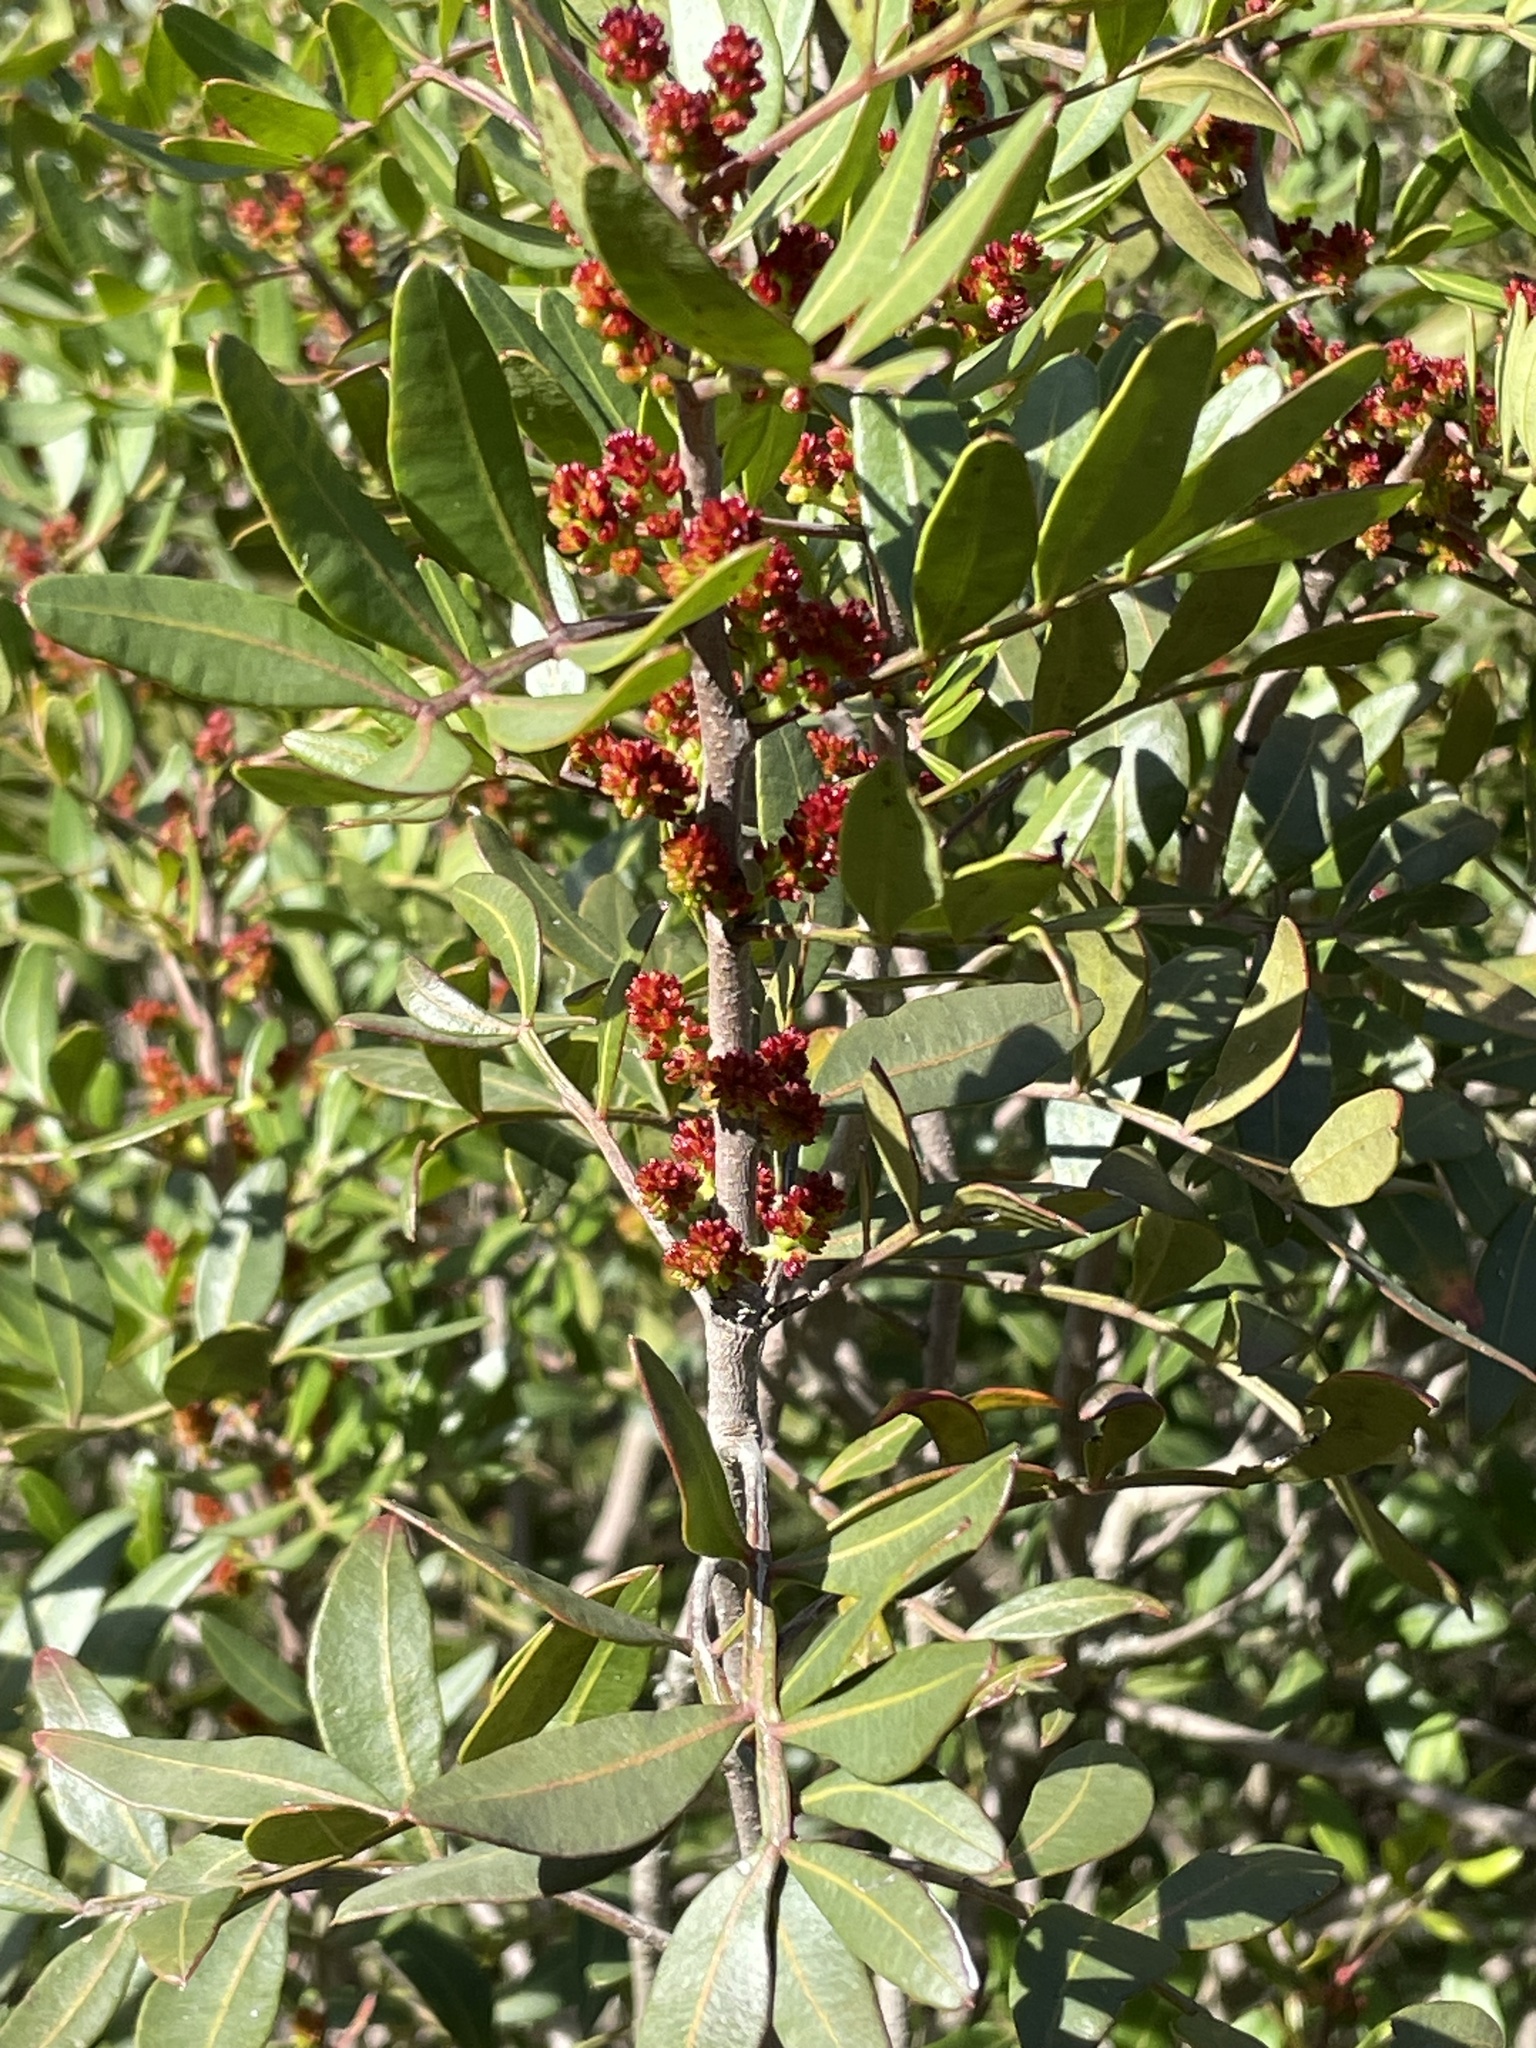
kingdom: Plantae
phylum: Tracheophyta
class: Magnoliopsida
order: Sapindales
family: Anacardiaceae
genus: Pistacia
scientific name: Pistacia lentiscus
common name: Lentisk
